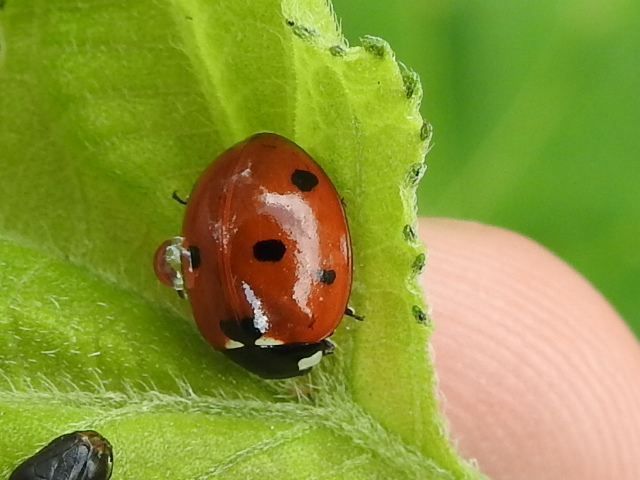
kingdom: Animalia
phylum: Arthropoda
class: Insecta
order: Coleoptera
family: Coccinellidae
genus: Coccinella
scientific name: Coccinella septempunctata
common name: Sevenspotted lady beetle
